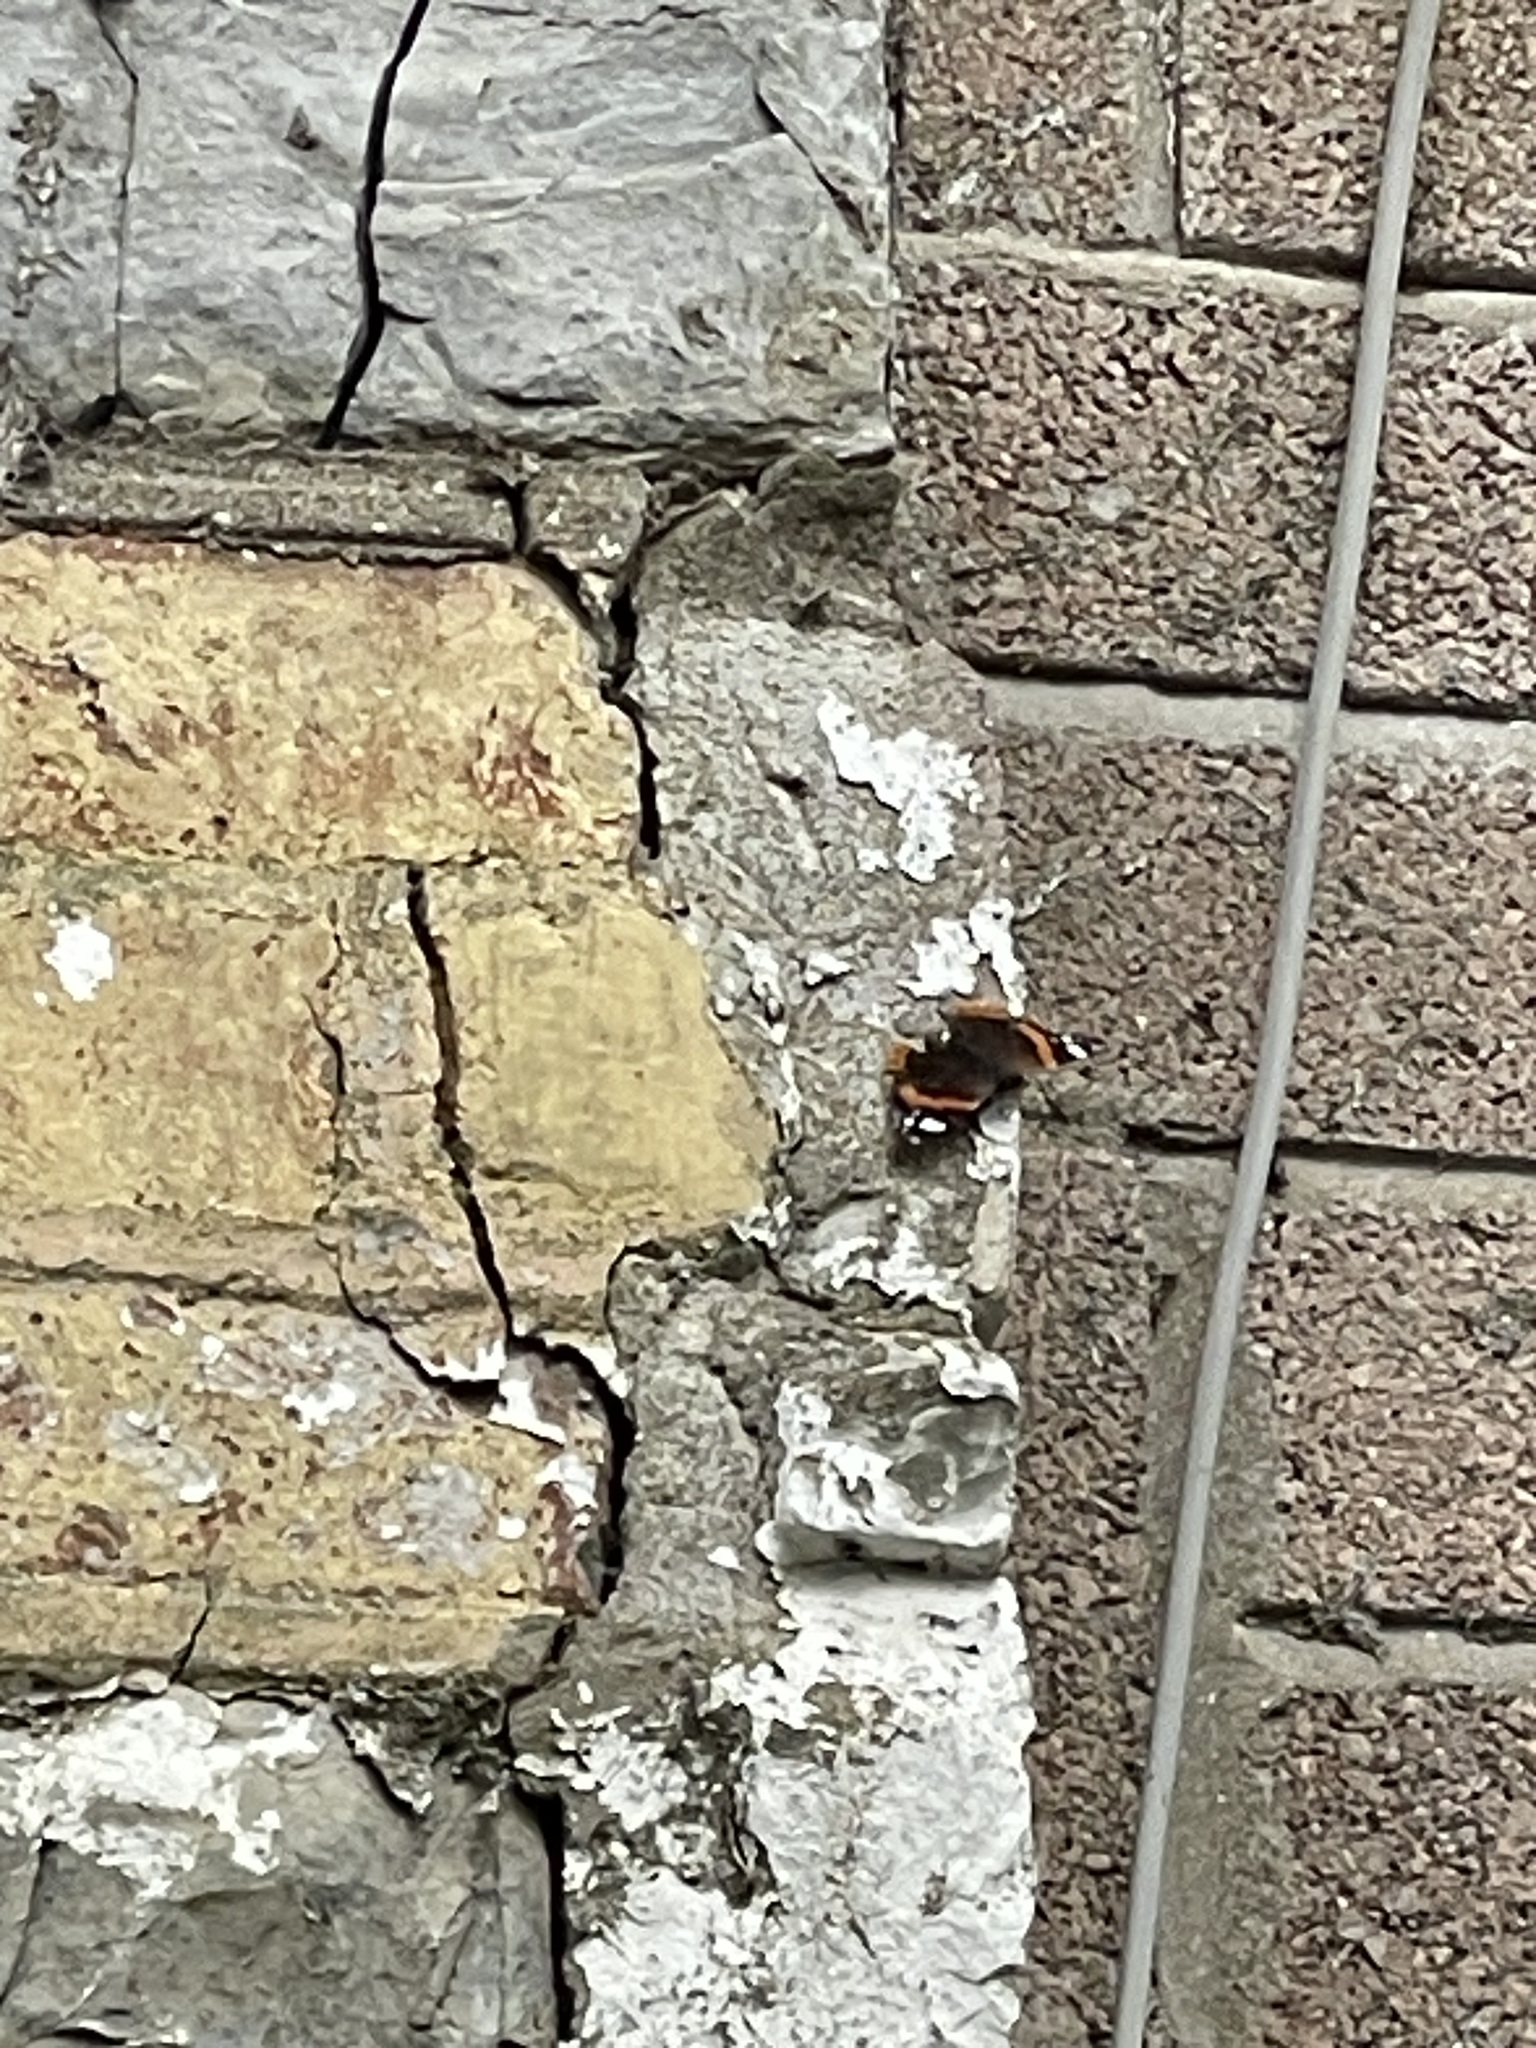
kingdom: Animalia
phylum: Arthropoda
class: Insecta
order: Lepidoptera
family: Nymphalidae
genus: Vanessa
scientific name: Vanessa atalanta
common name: Red admiral
